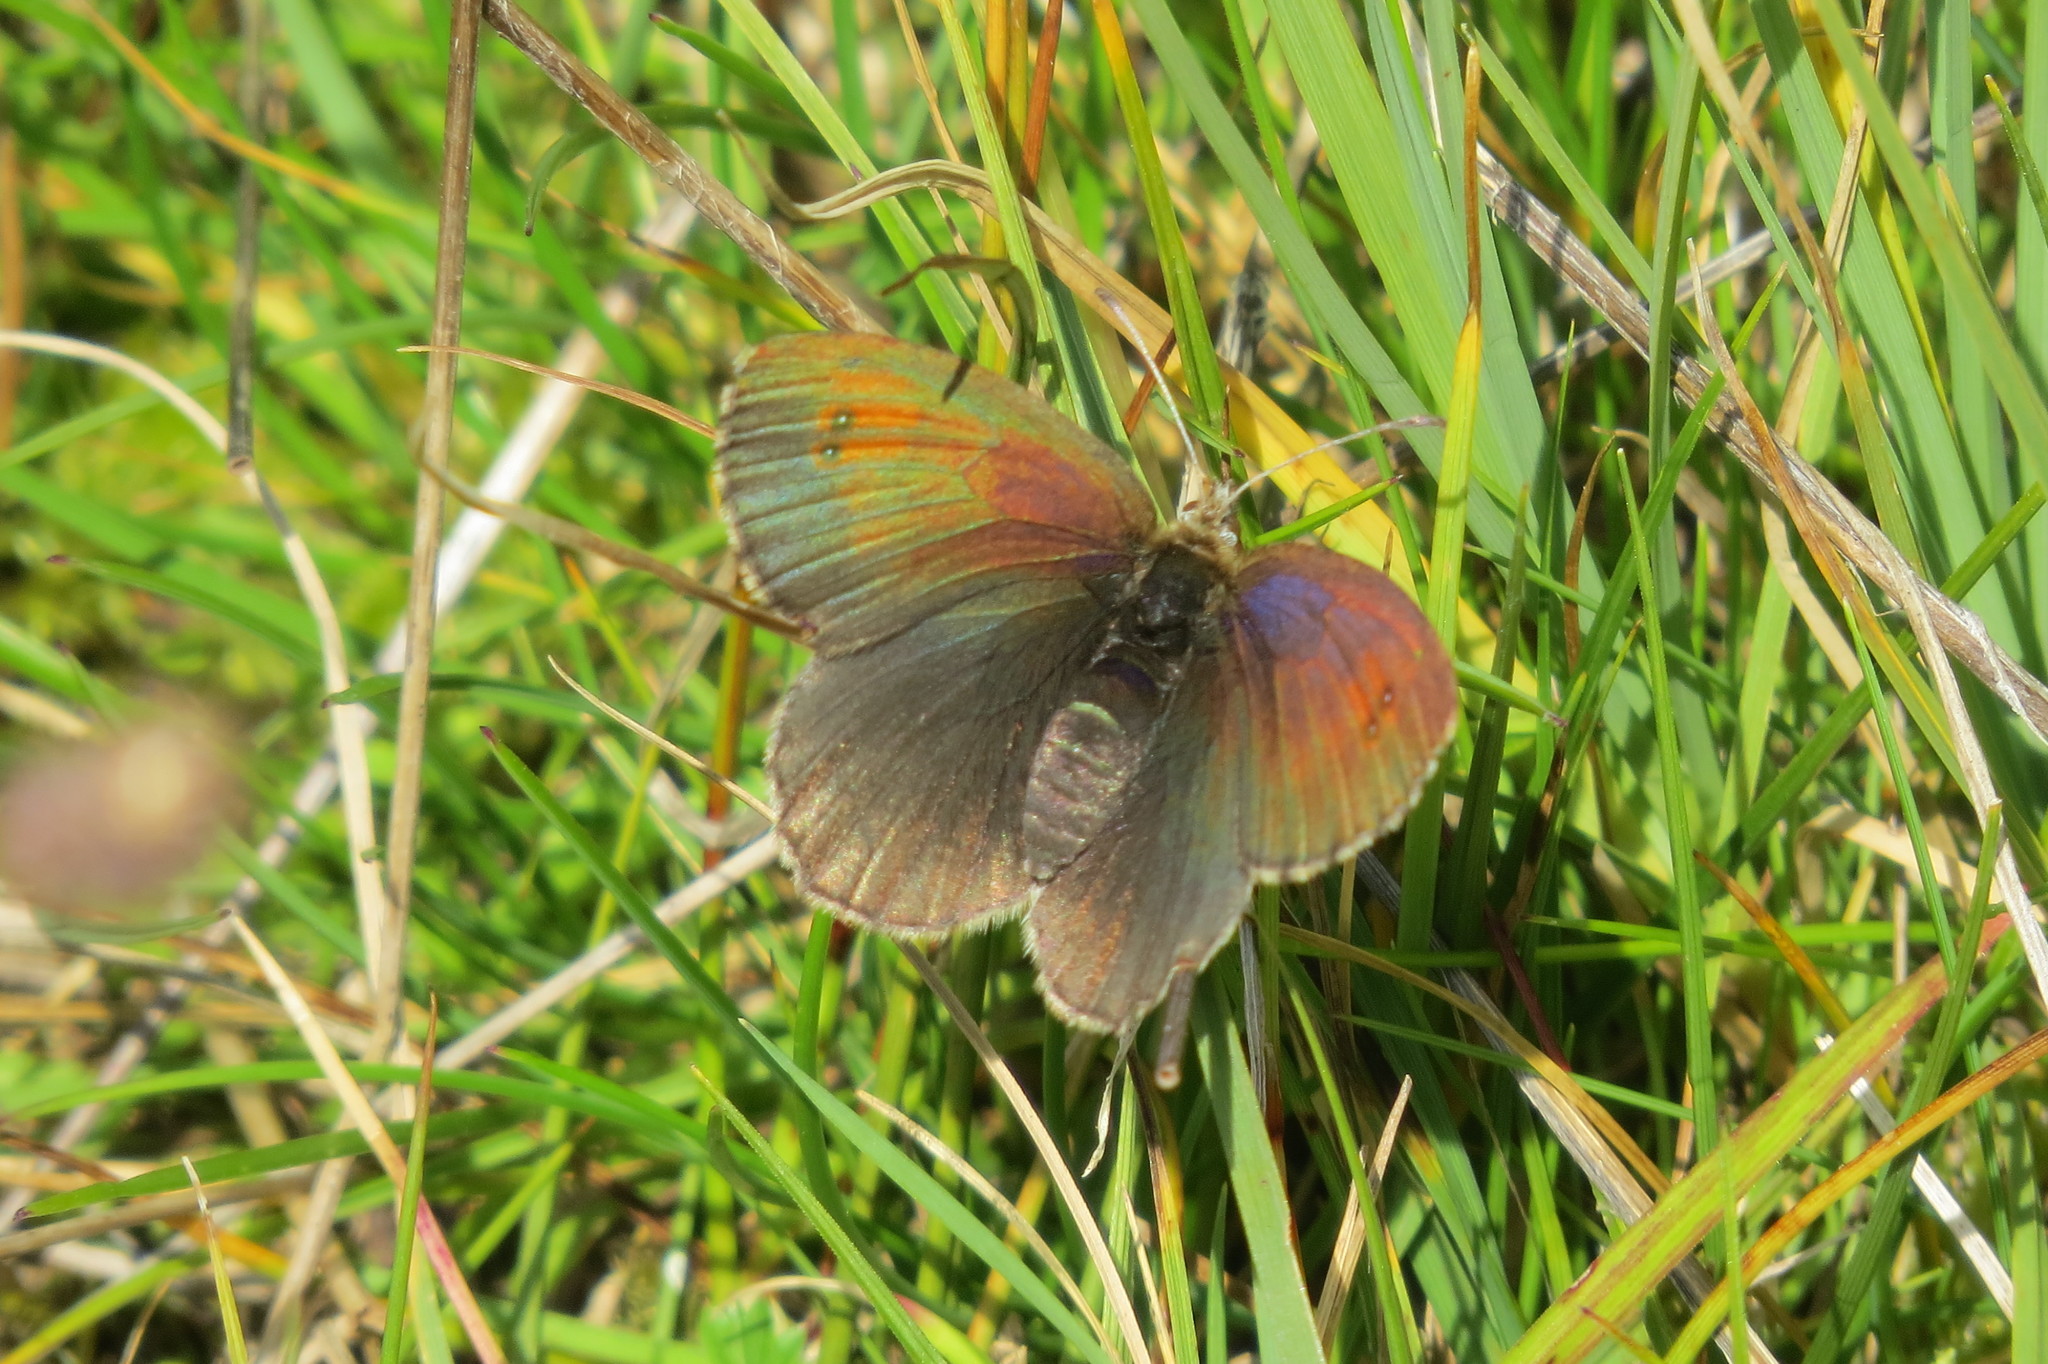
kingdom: Animalia
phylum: Arthropoda
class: Insecta
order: Lepidoptera
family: Nymphalidae
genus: Erebia
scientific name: Erebia tyndarus
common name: Swiss brassy ringlet
